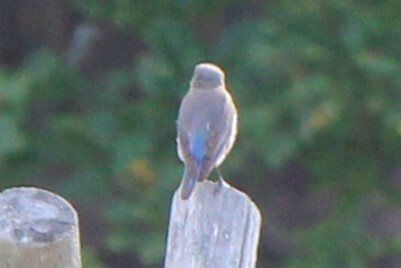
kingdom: Animalia
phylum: Chordata
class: Aves
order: Passeriformes
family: Turdidae
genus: Sialia
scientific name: Sialia sialis
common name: Eastern bluebird
